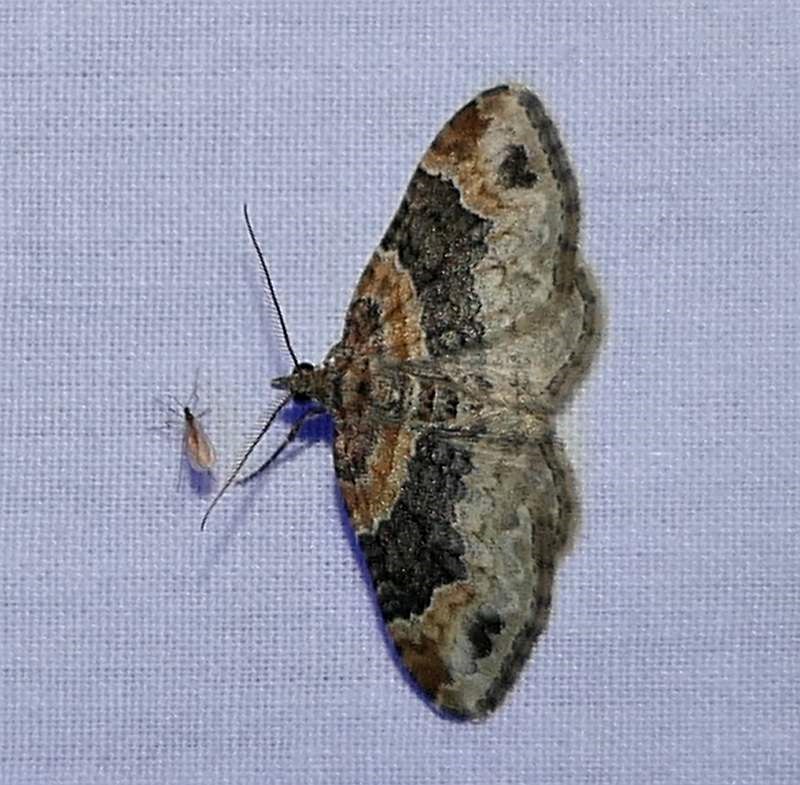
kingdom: Animalia
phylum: Arthropoda
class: Insecta
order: Lepidoptera
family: Geometridae
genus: Xanthorhoe
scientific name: Xanthorhoe ferrugata
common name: Dark-barred twin-spot carpet
